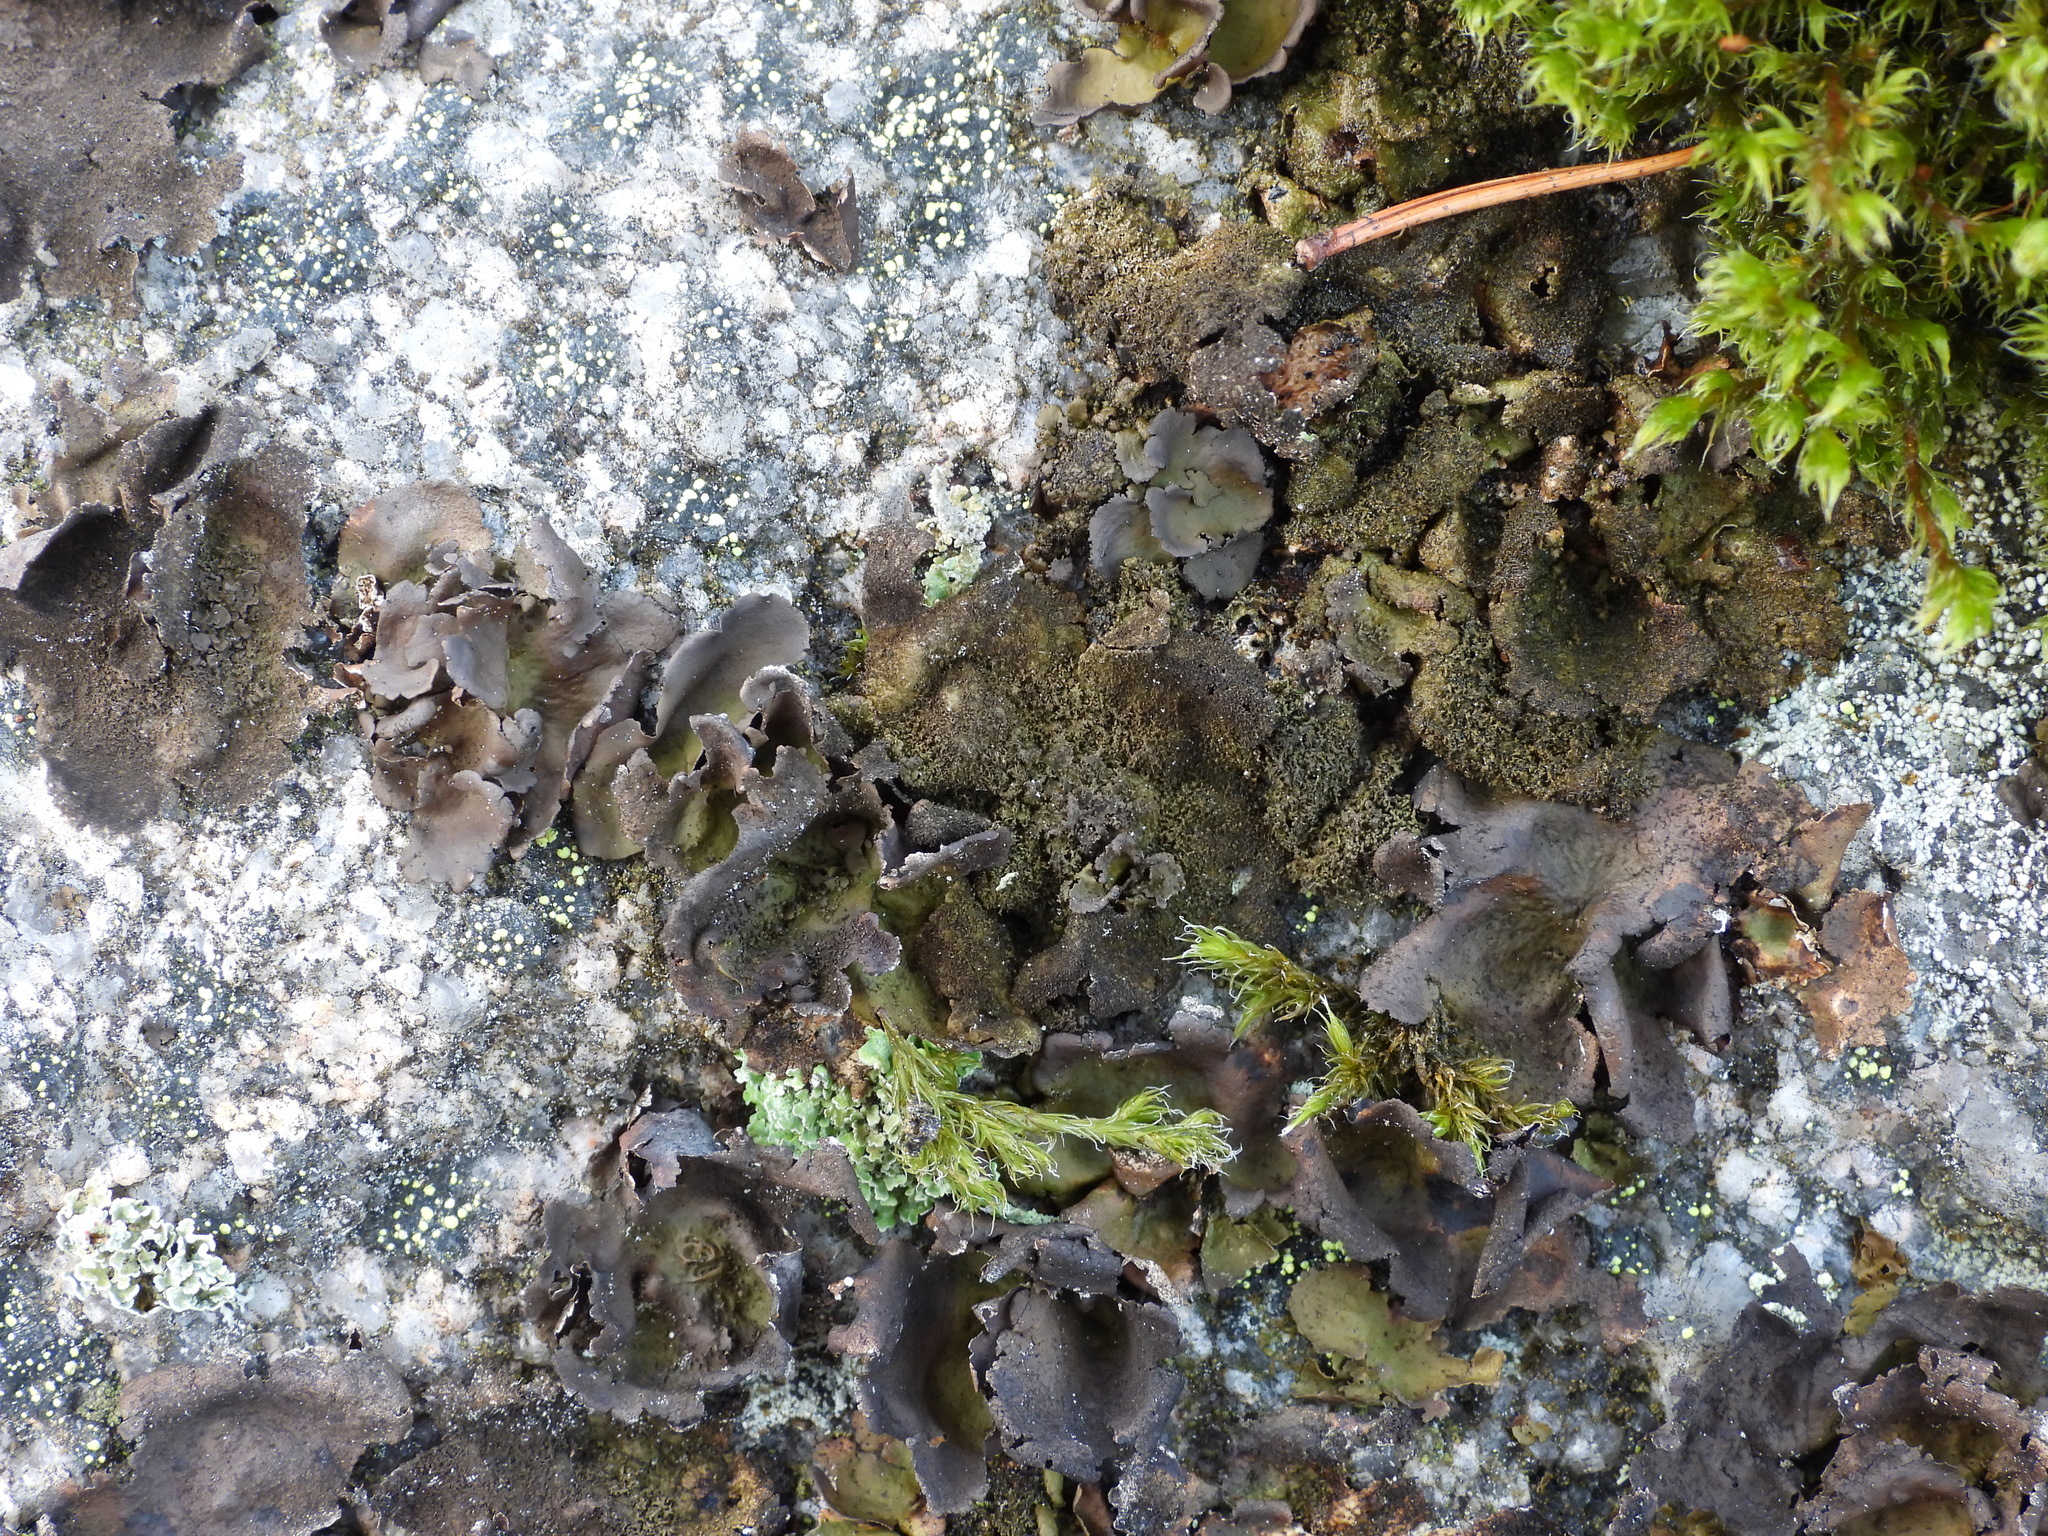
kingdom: Fungi
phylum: Ascomycota
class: Lecanoromycetes
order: Umbilicariales
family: Umbilicariaceae
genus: Umbilicaria
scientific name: Umbilicaria deusta
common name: Peppered rock tripe
